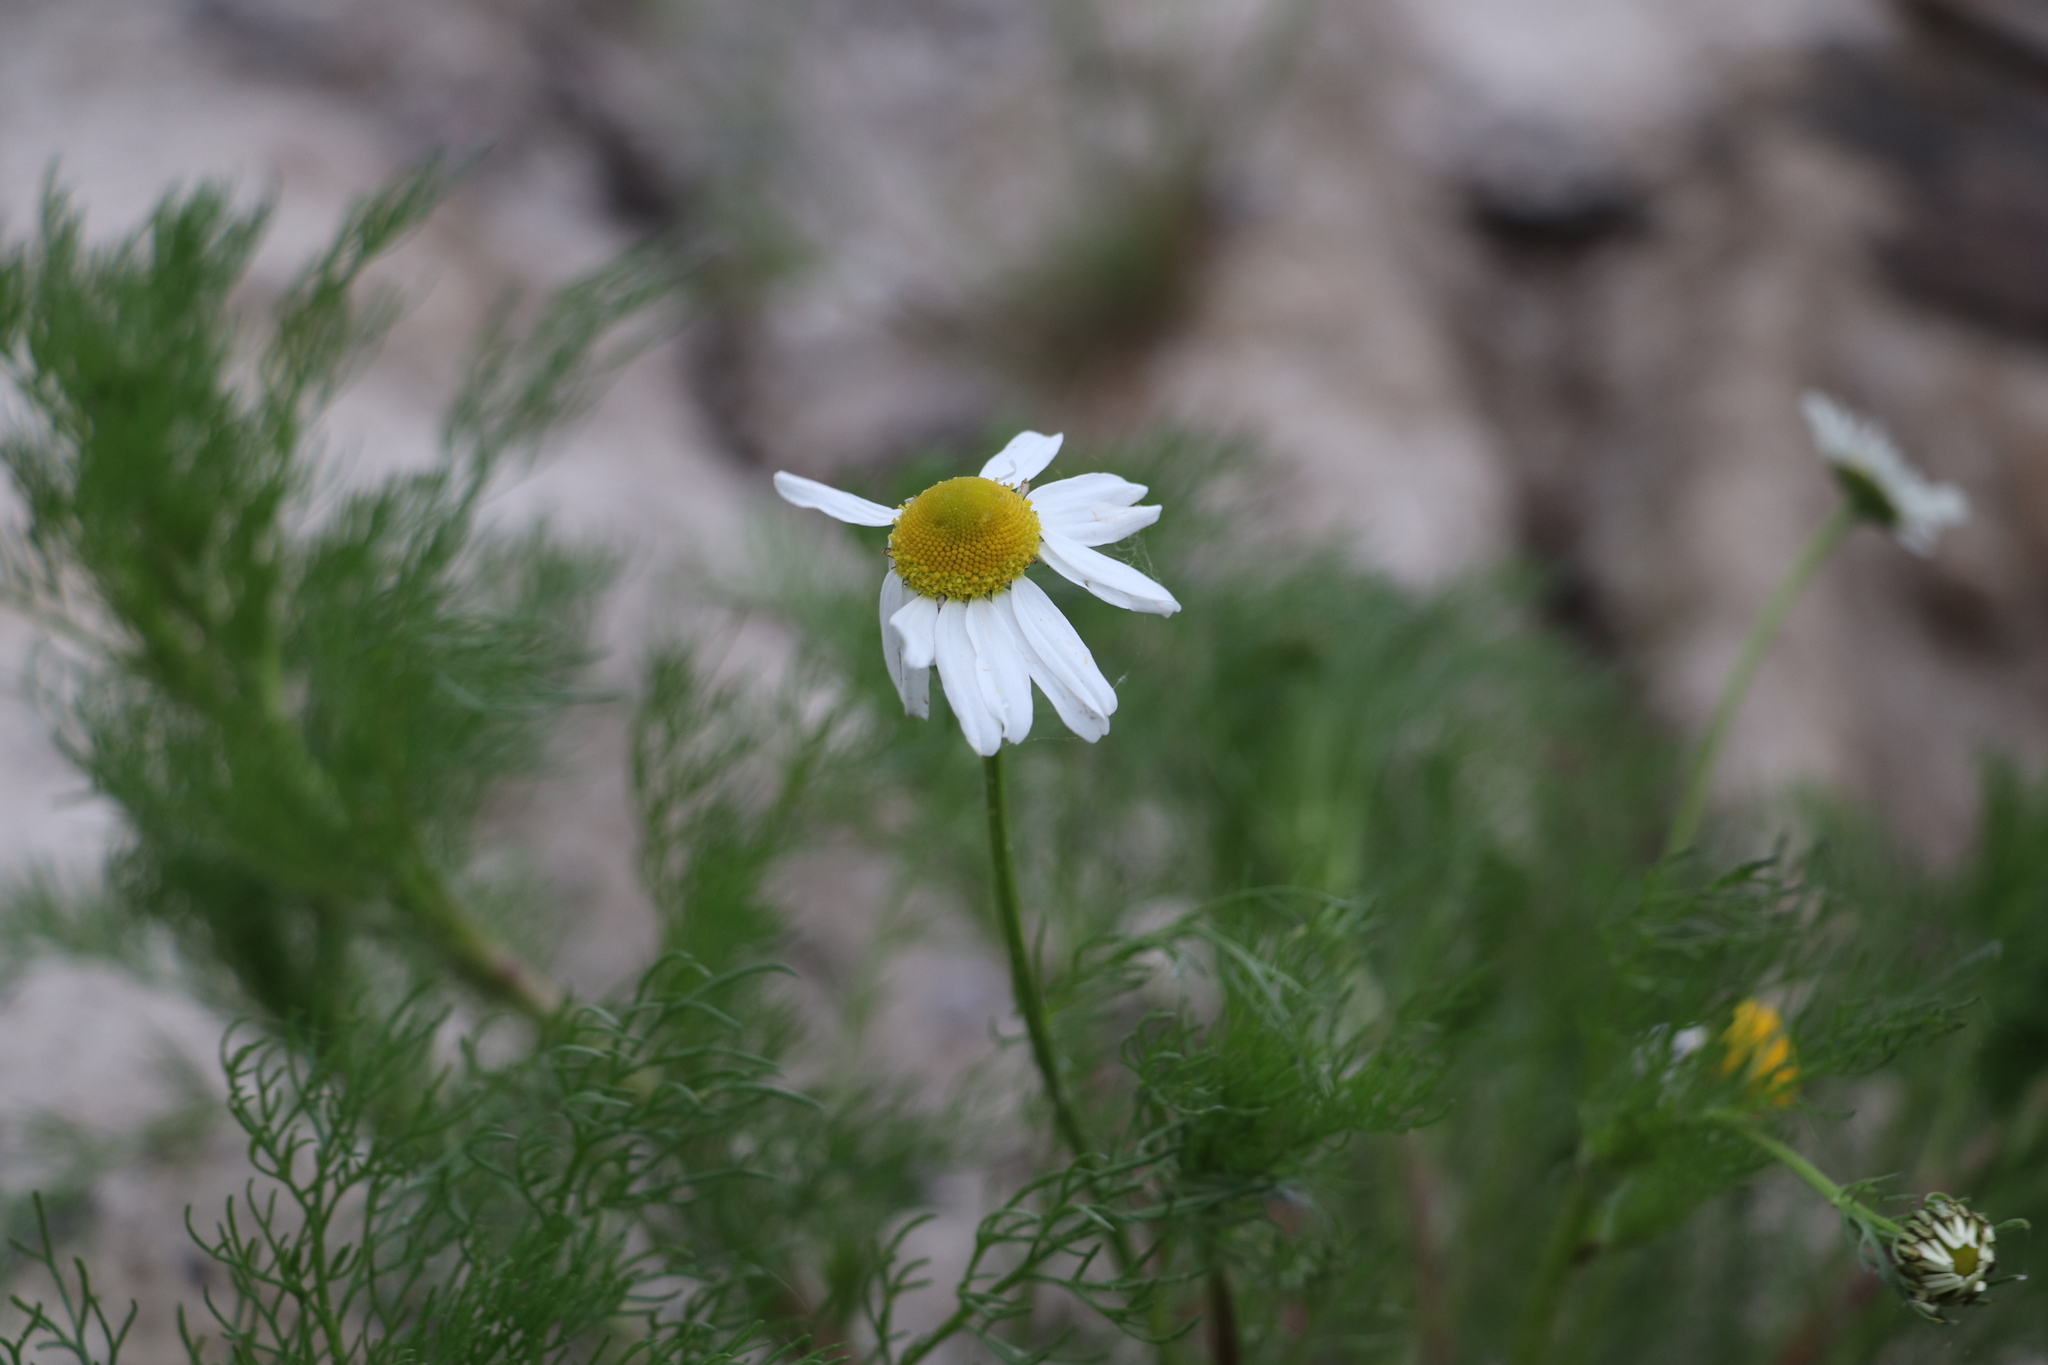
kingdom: Plantae
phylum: Tracheophyta
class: Magnoliopsida
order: Asterales
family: Asteraceae
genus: Tripleurospermum
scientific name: Tripleurospermum inodorum
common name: Scentless mayweed
